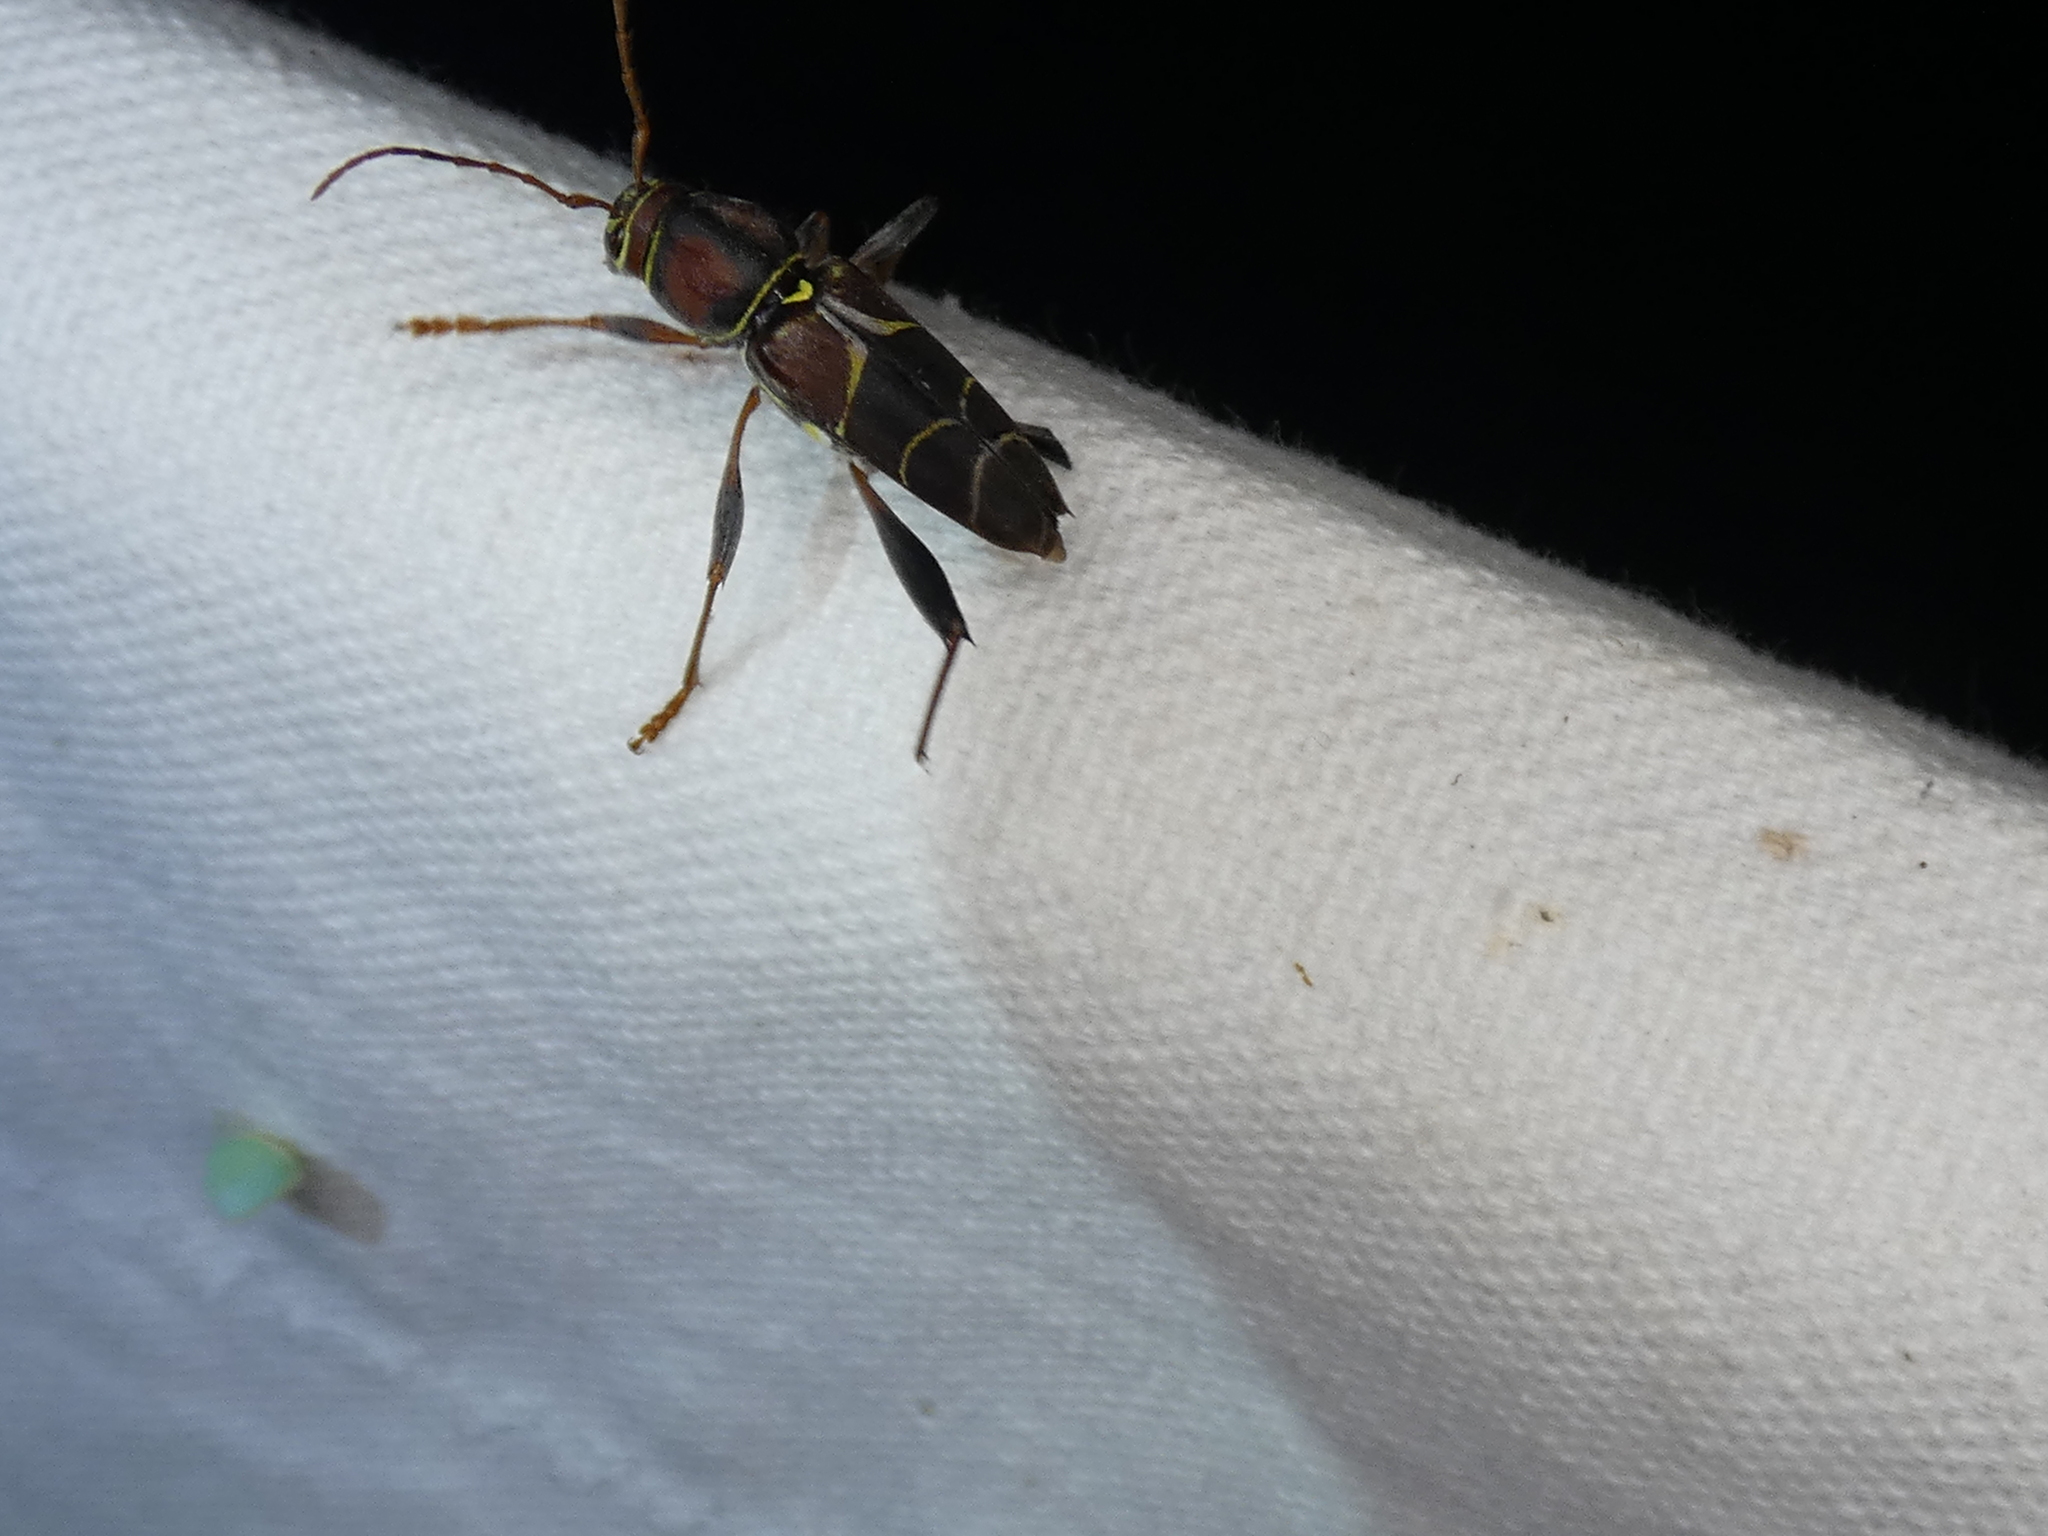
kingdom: Animalia
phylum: Arthropoda
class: Insecta
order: Coleoptera
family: Cerambycidae
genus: Neoclytus
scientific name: Neoclytus mucronatus
